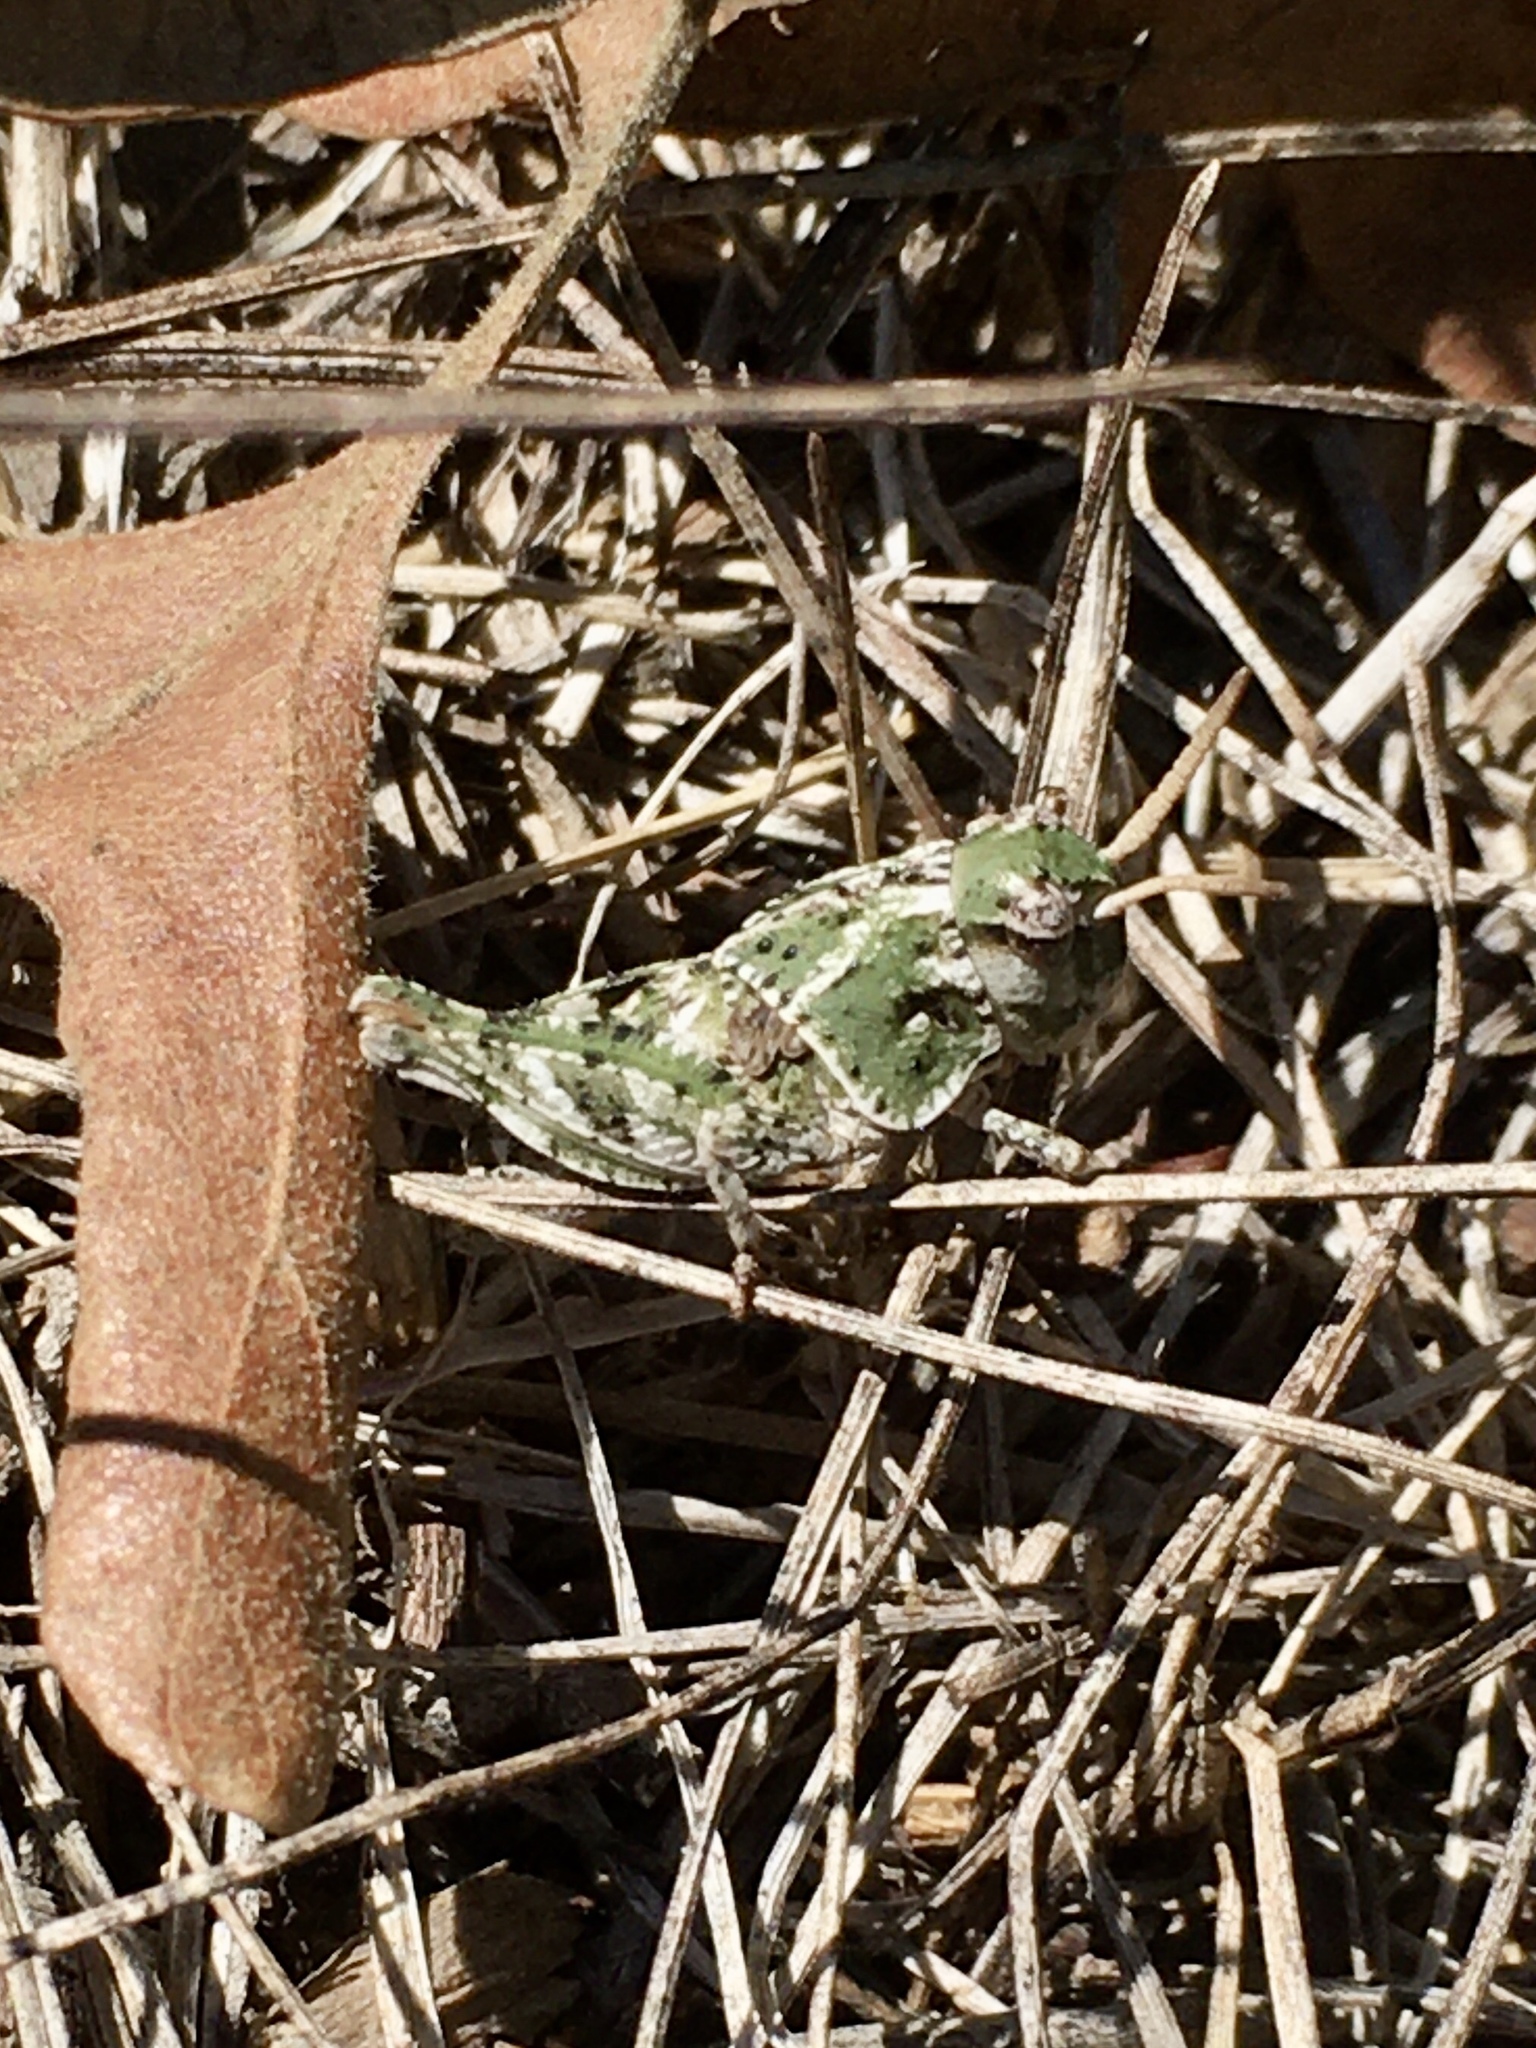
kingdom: Animalia
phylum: Arthropoda
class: Insecta
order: Orthoptera
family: Acrididae
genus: Pardalophora
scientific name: Pardalophora apiculata
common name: Coral-winged locust
